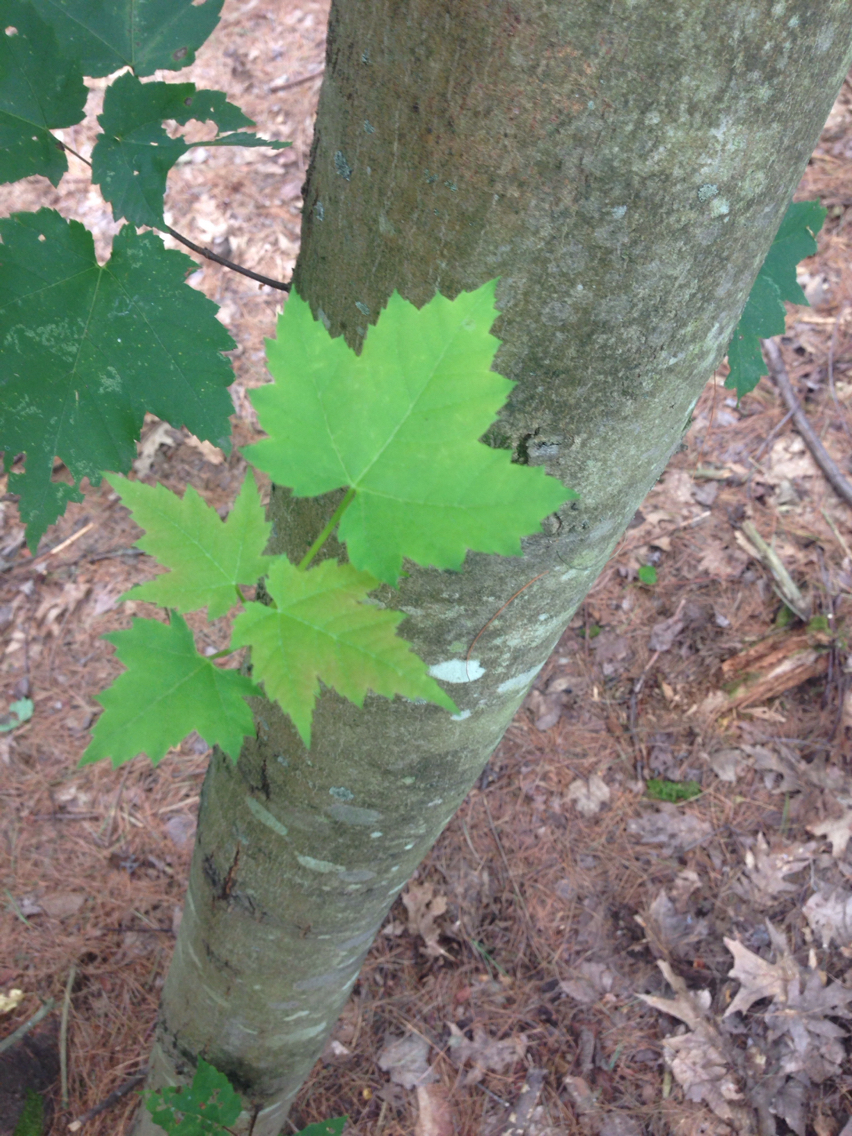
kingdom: Plantae
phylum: Tracheophyta
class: Magnoliopsida
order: Sapindales
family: Sapindaceae
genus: Acer
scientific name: Acer rubrum
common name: Red maple
